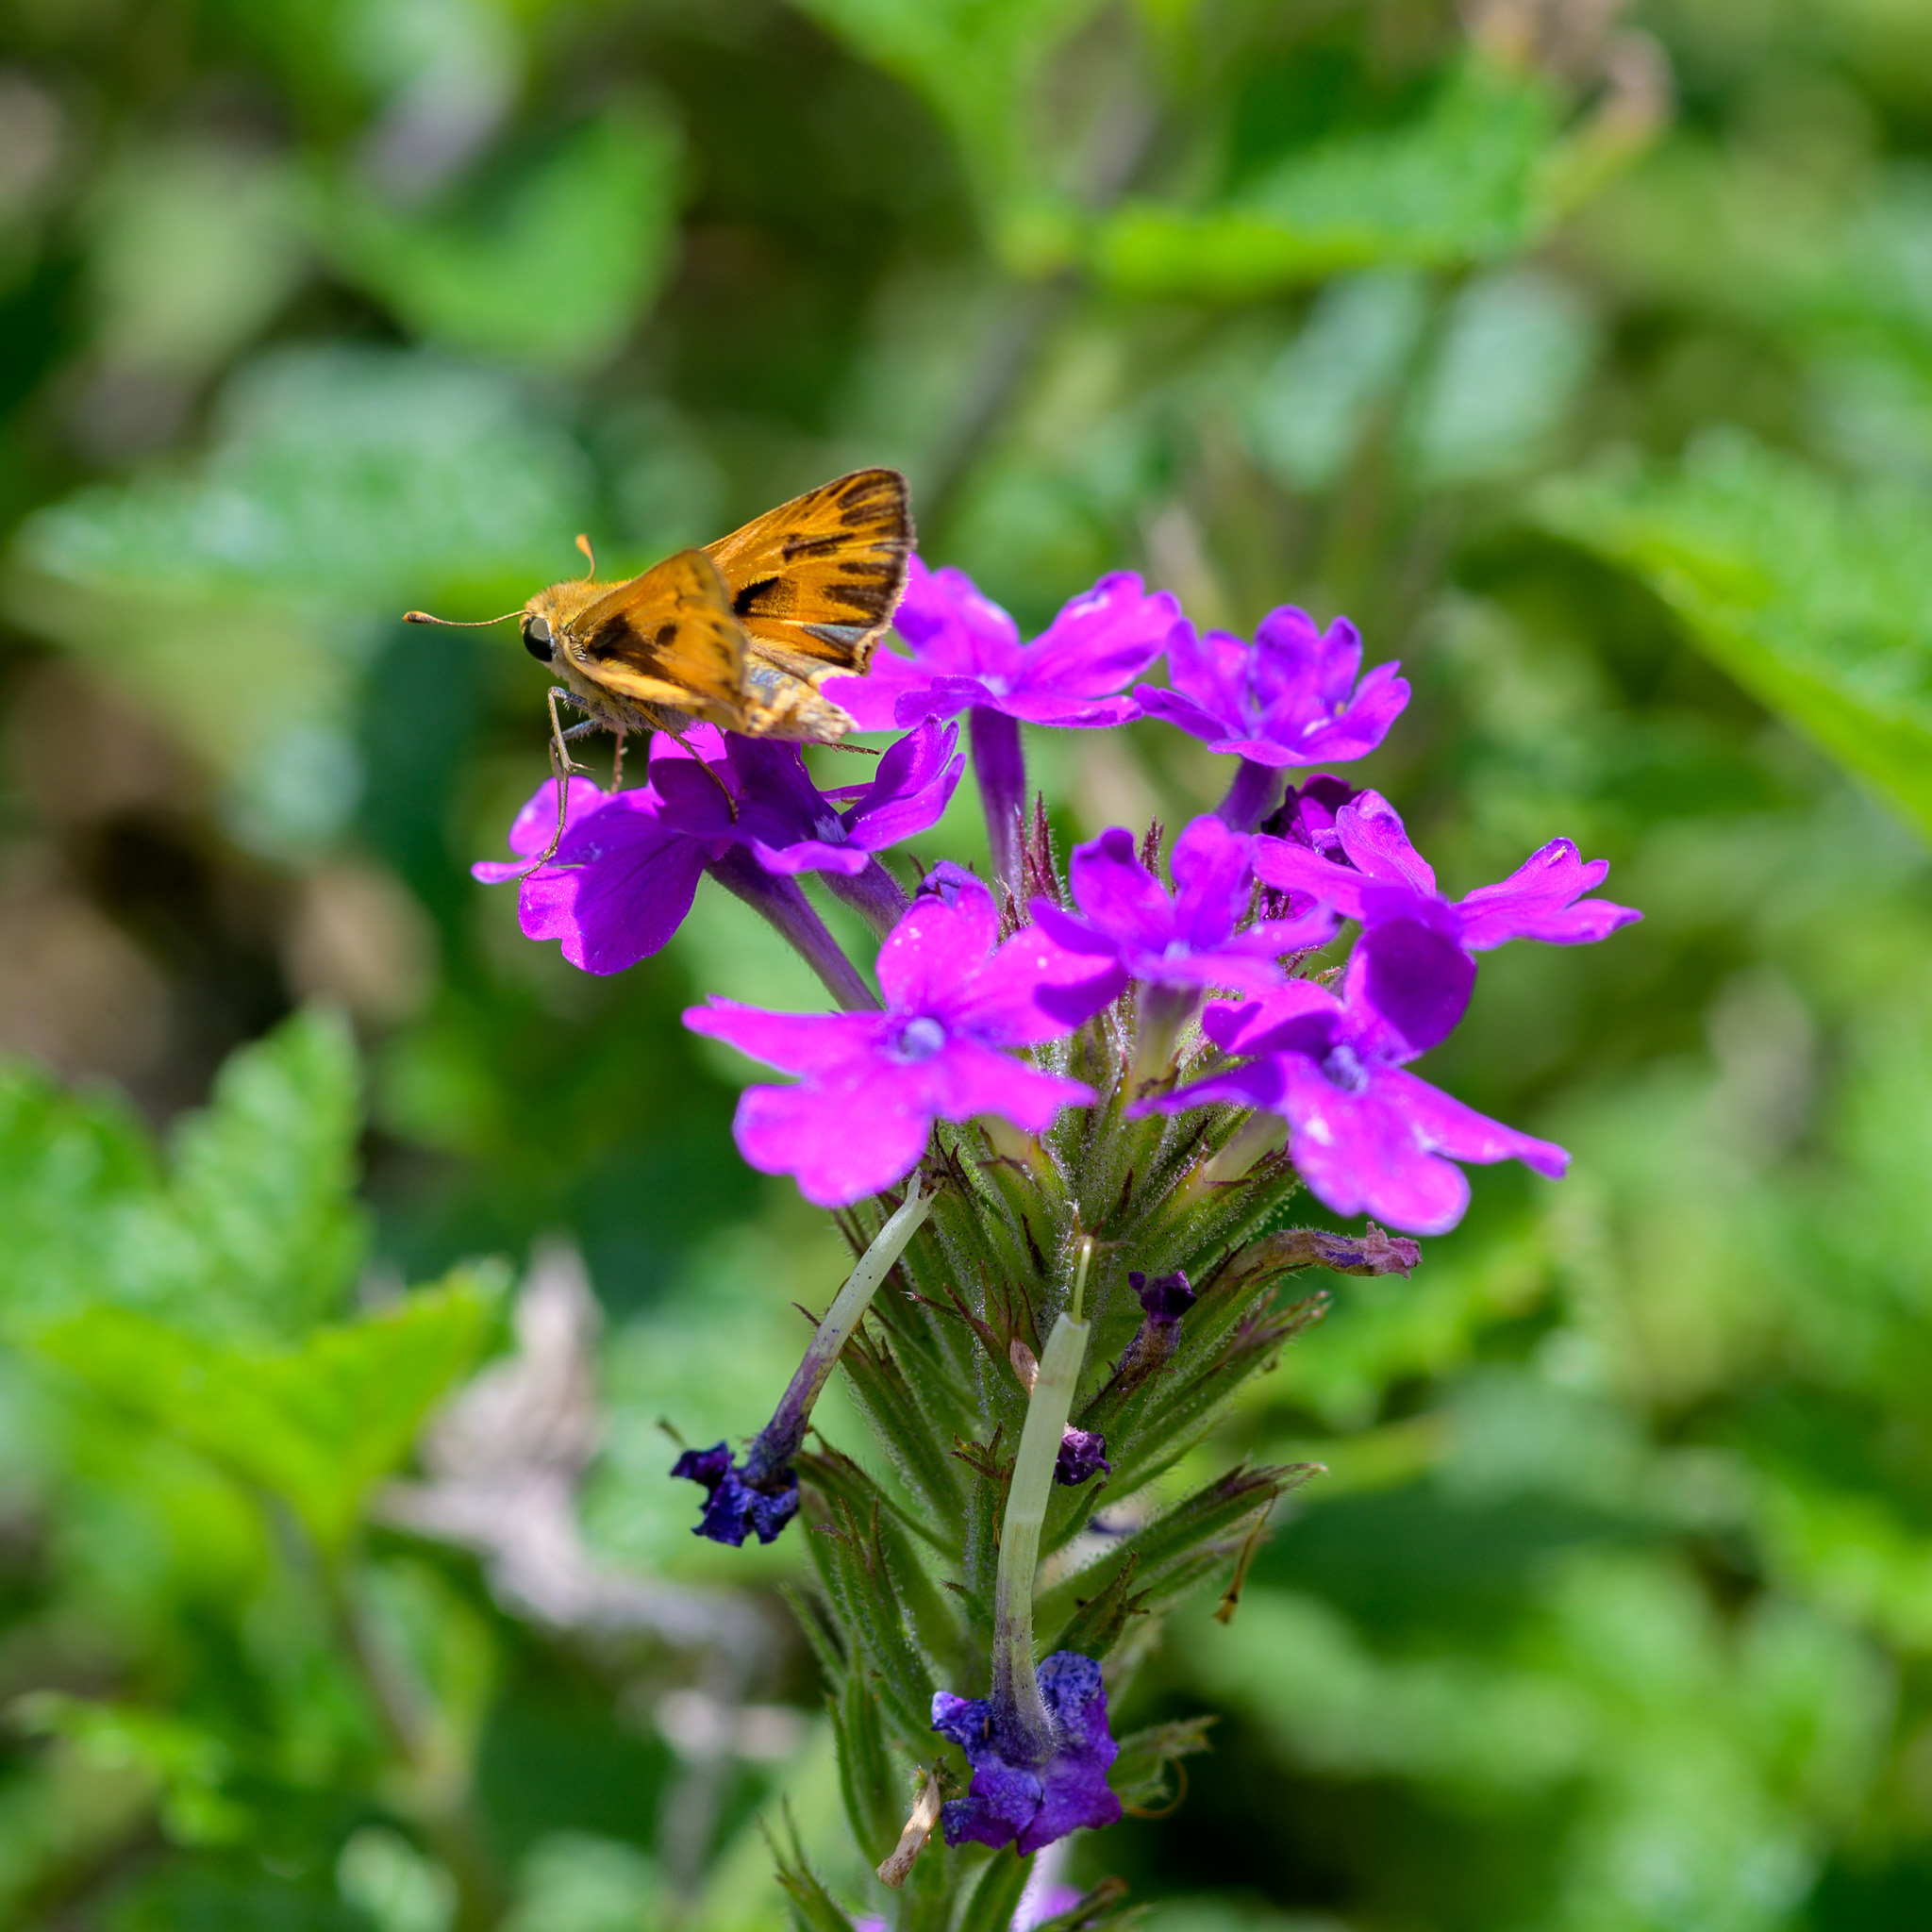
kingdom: Animalia
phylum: Arthropoda
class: Insecta
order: Lepidoptera
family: Hesperiidae
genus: Hylephila
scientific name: Hylephila phyleus
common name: Fiery skipper
